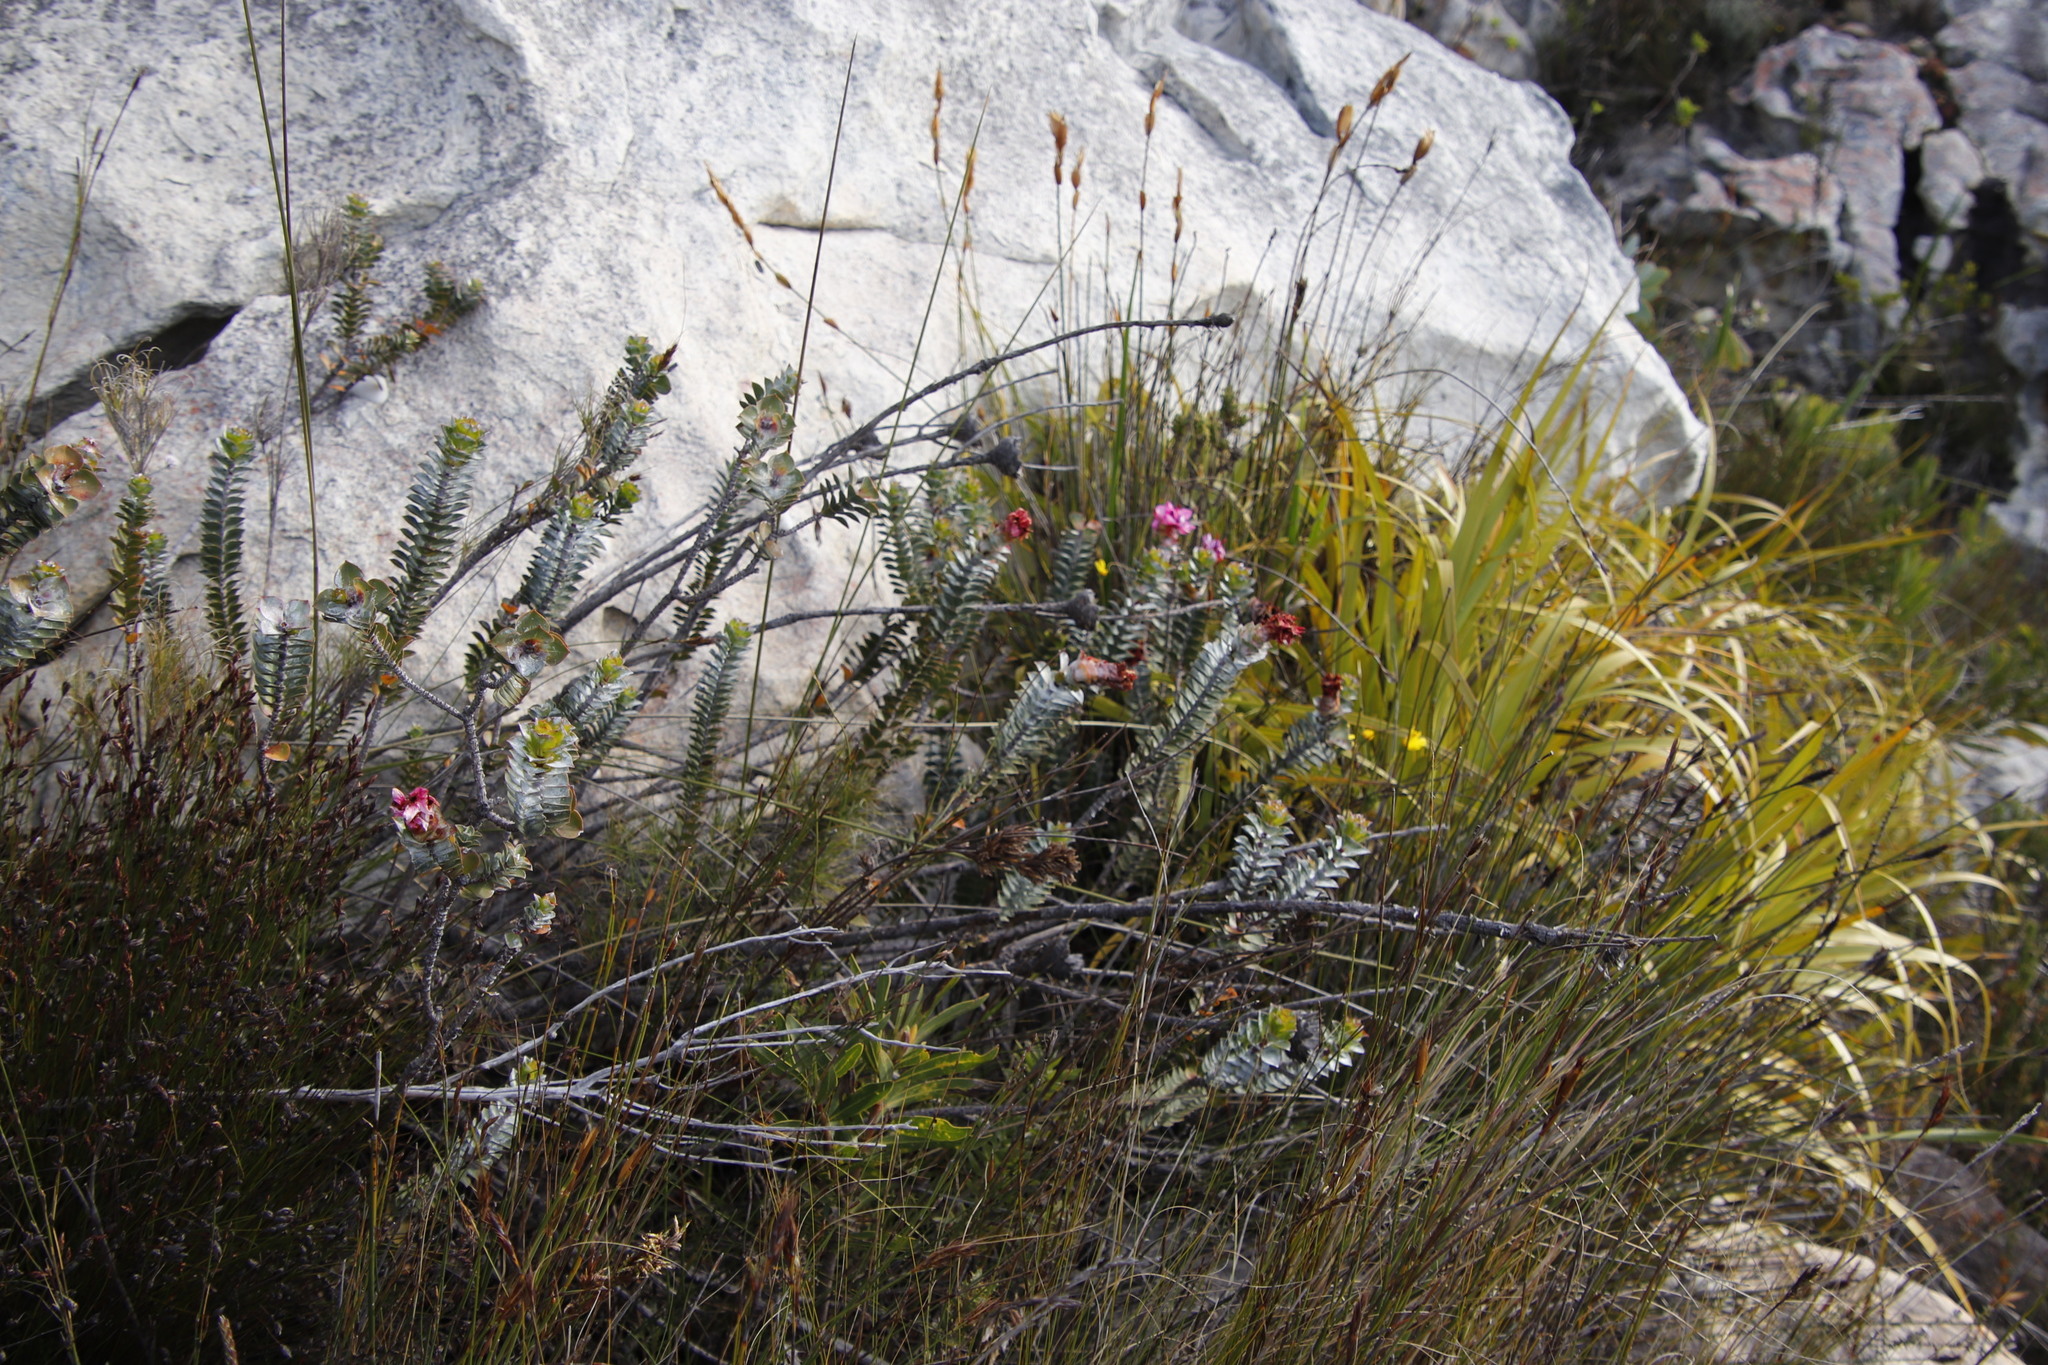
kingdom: Plantae
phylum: Tracheophyta
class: Magnoliopsida
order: Myrtales
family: Penaeaceae
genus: Saltera
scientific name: Saltera sarcocolla
